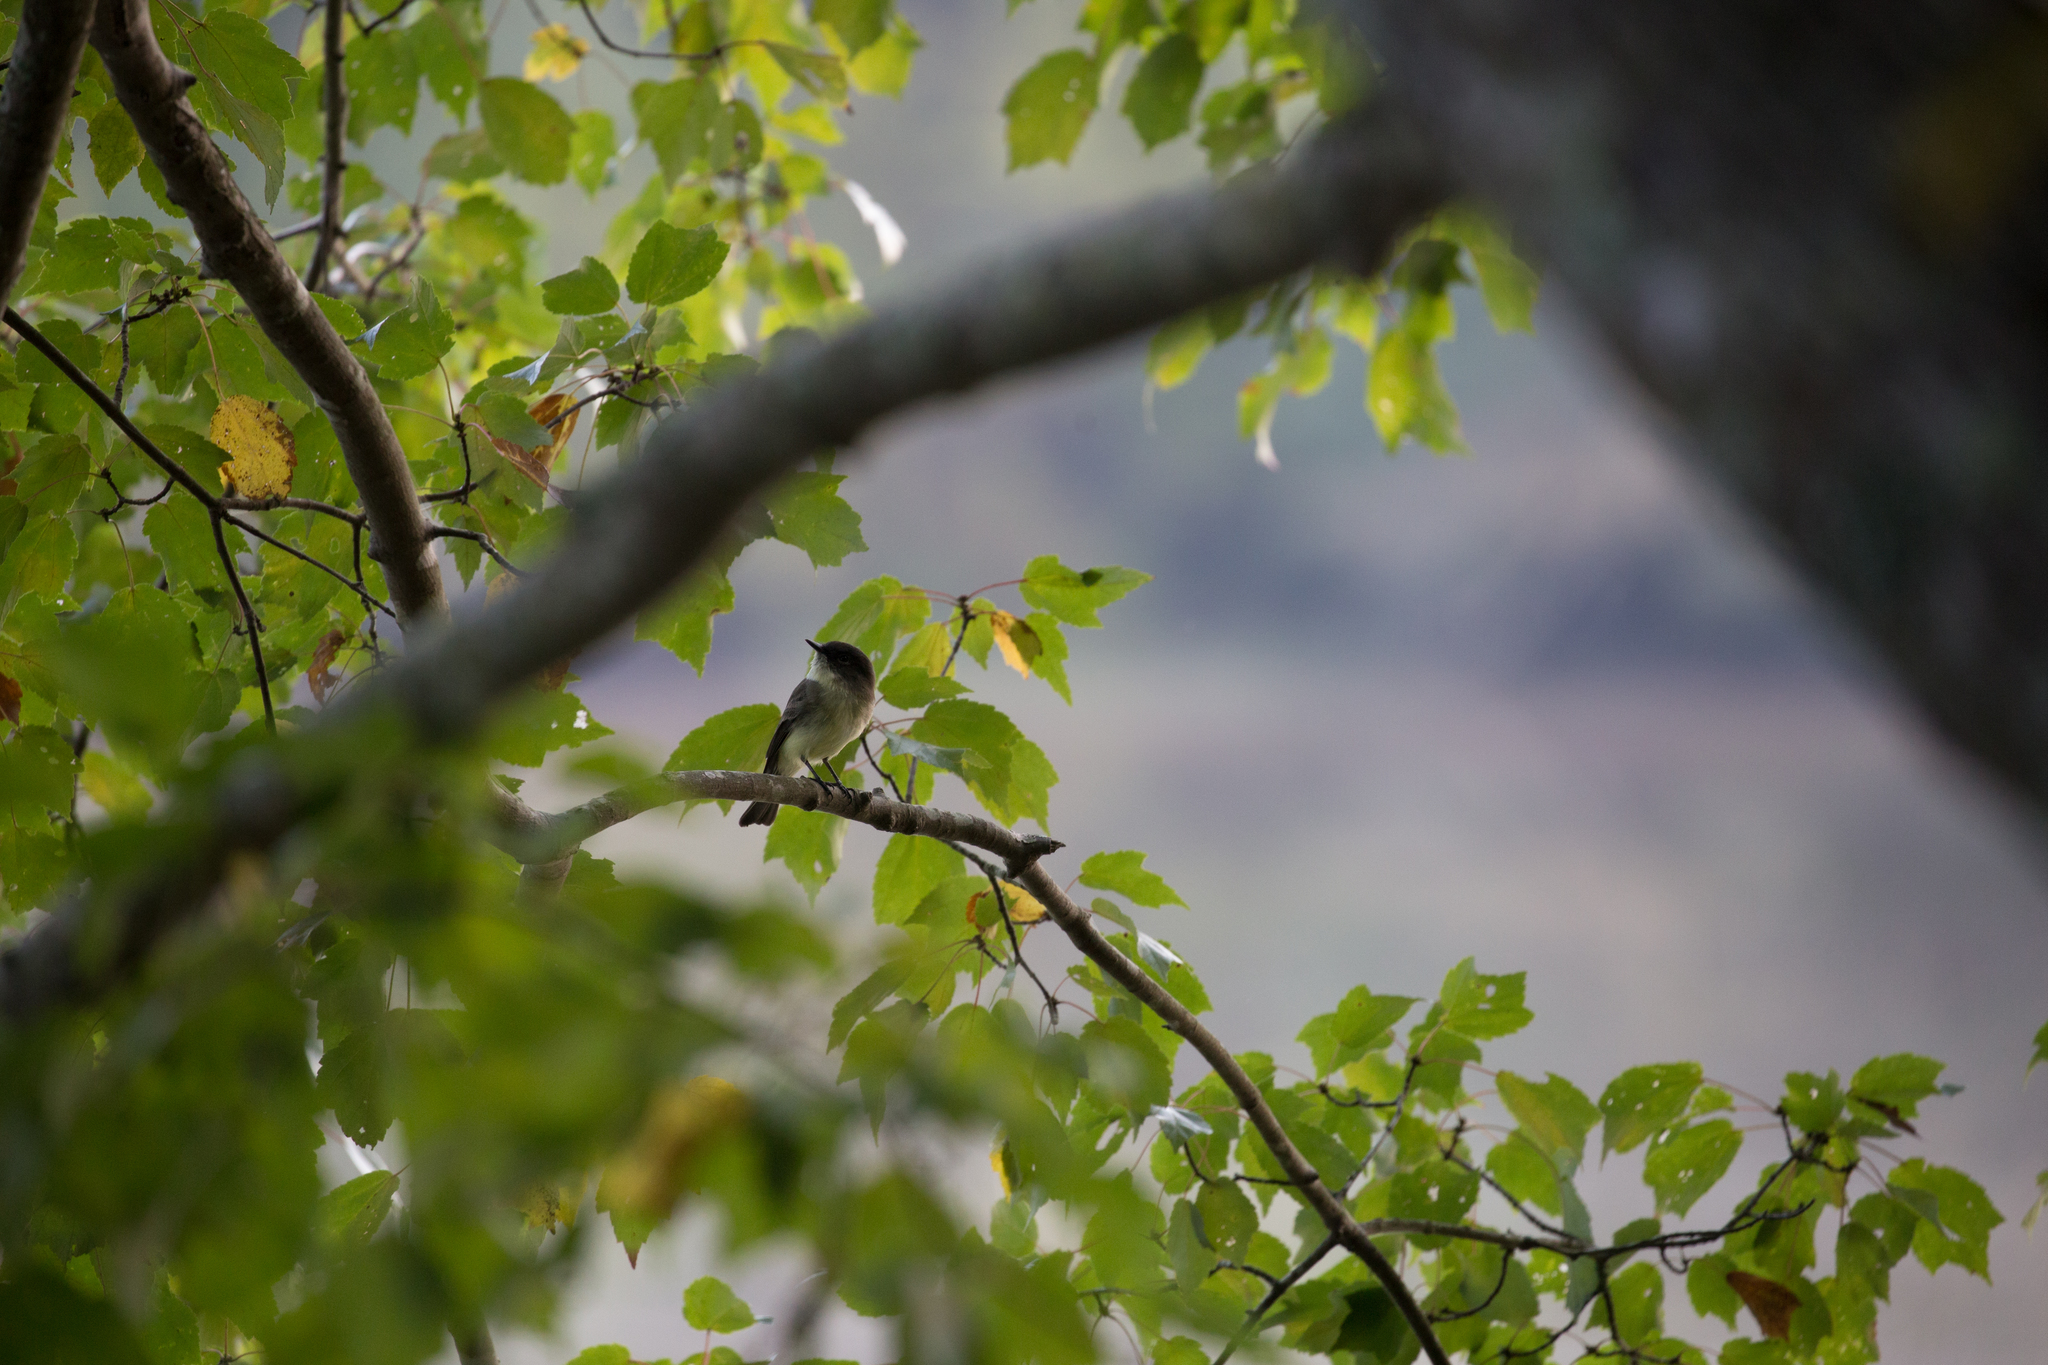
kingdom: Animalia
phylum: Chordata
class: Aves
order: Passeriformes
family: Tyrannidae
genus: Sayornis
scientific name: Sayornis phoebe
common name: Eastern phoebe
